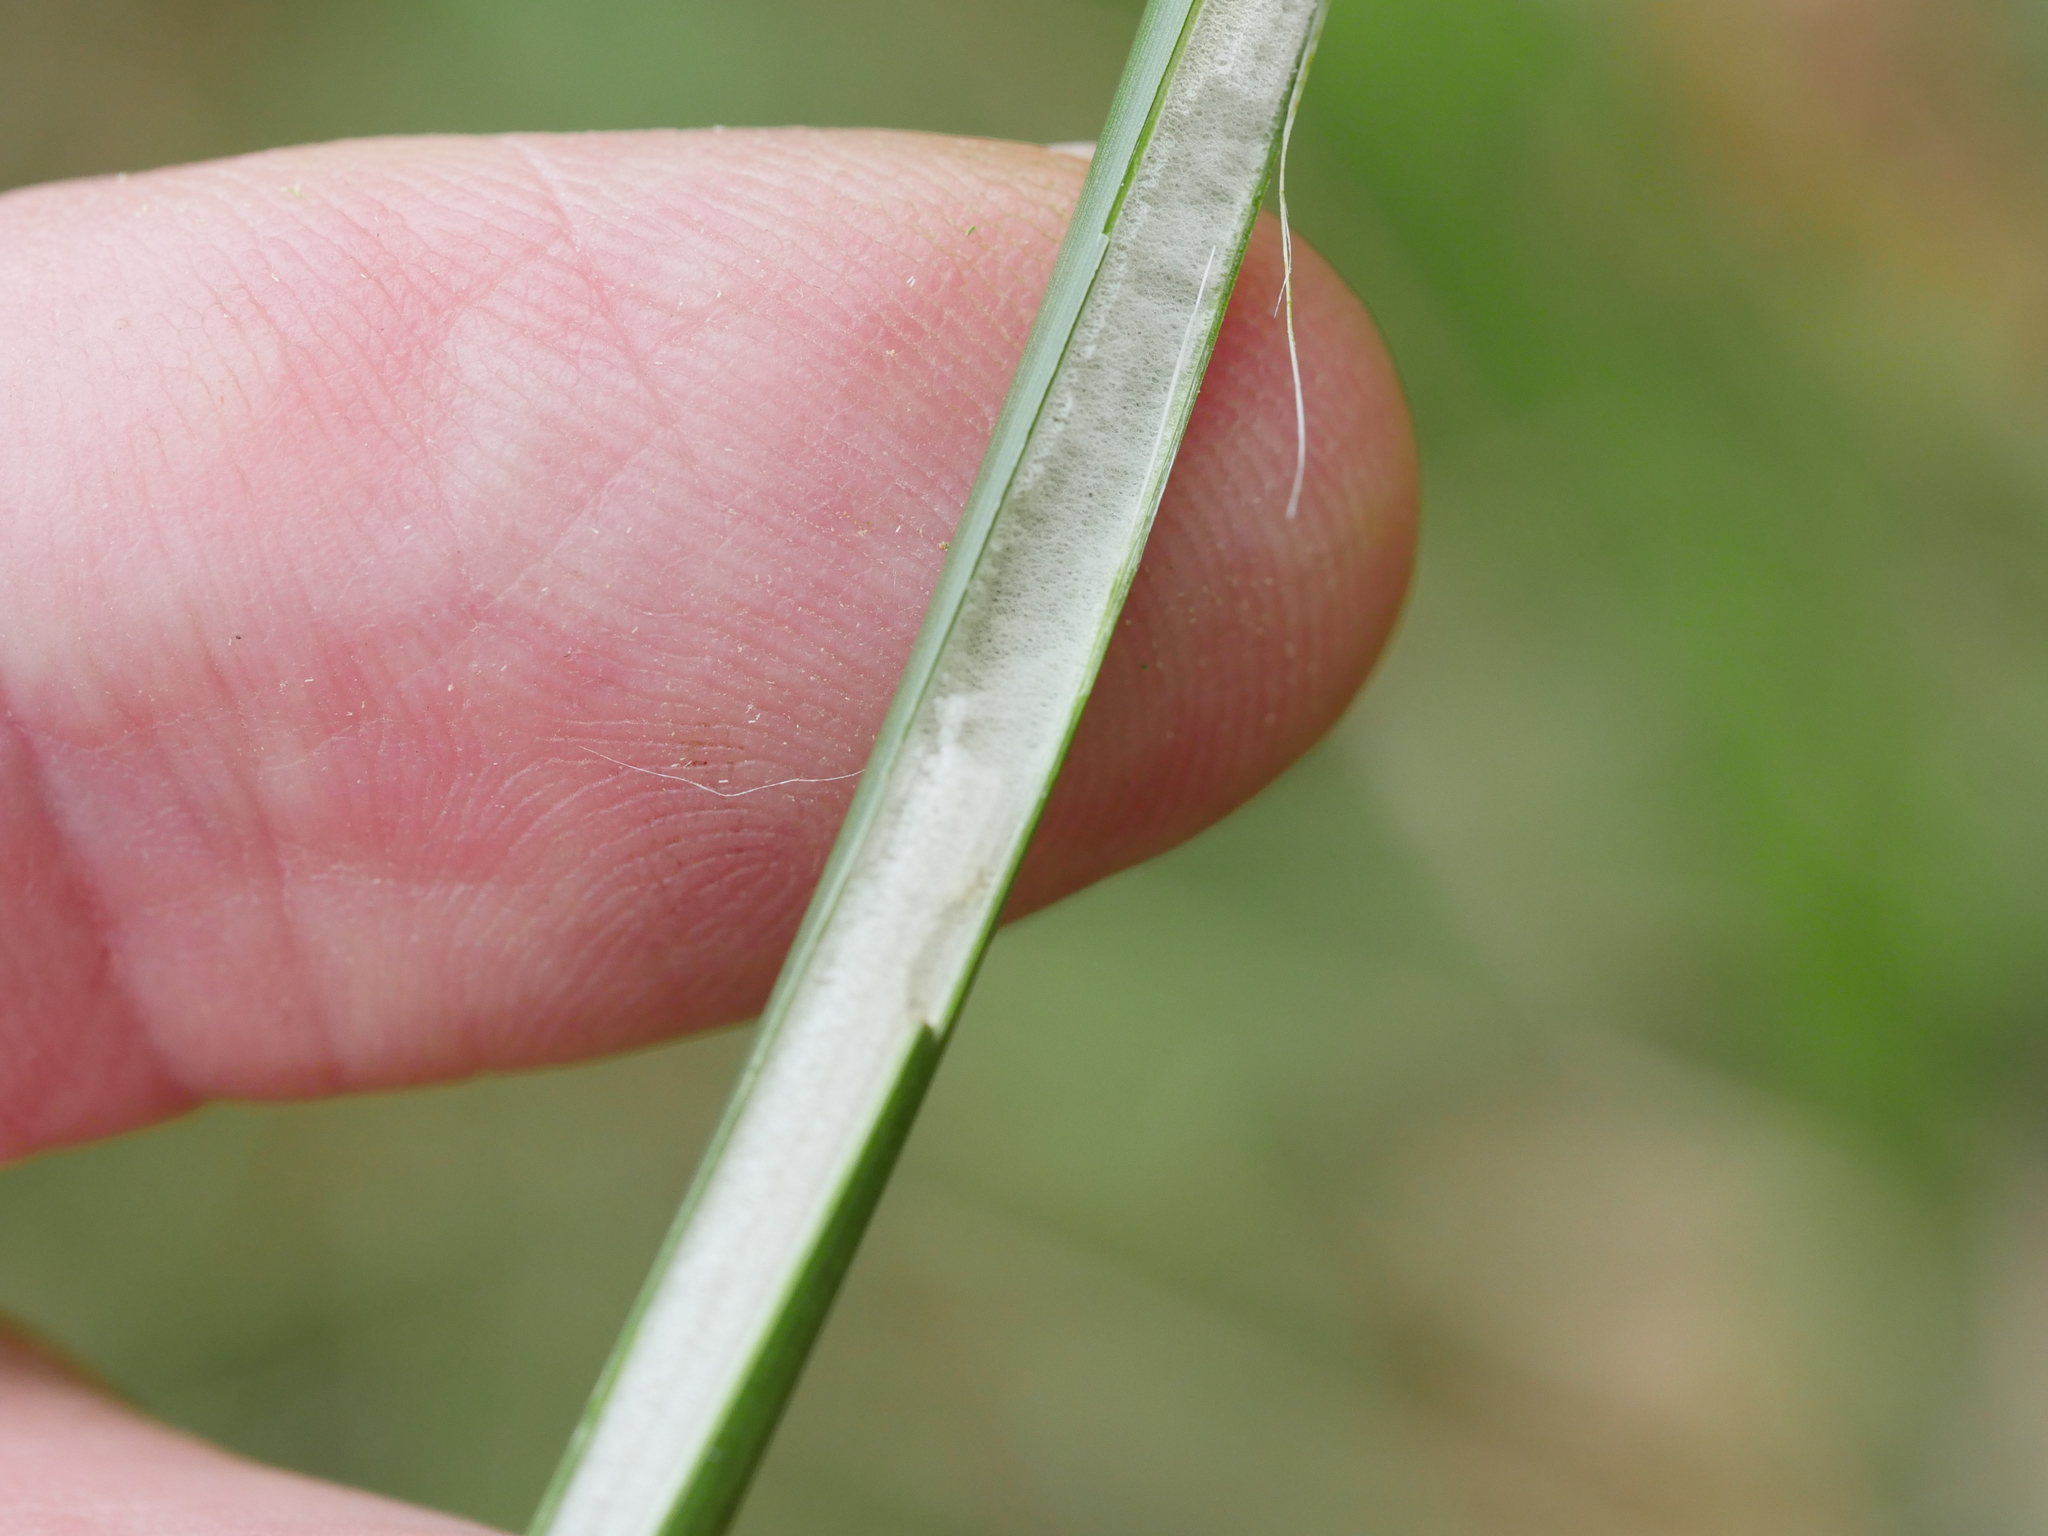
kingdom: Plantae
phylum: Tracheophyta
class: Liliopsida
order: Poales
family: Juncaceae
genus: Juncus
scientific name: Juncus effusus
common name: Soft rush
